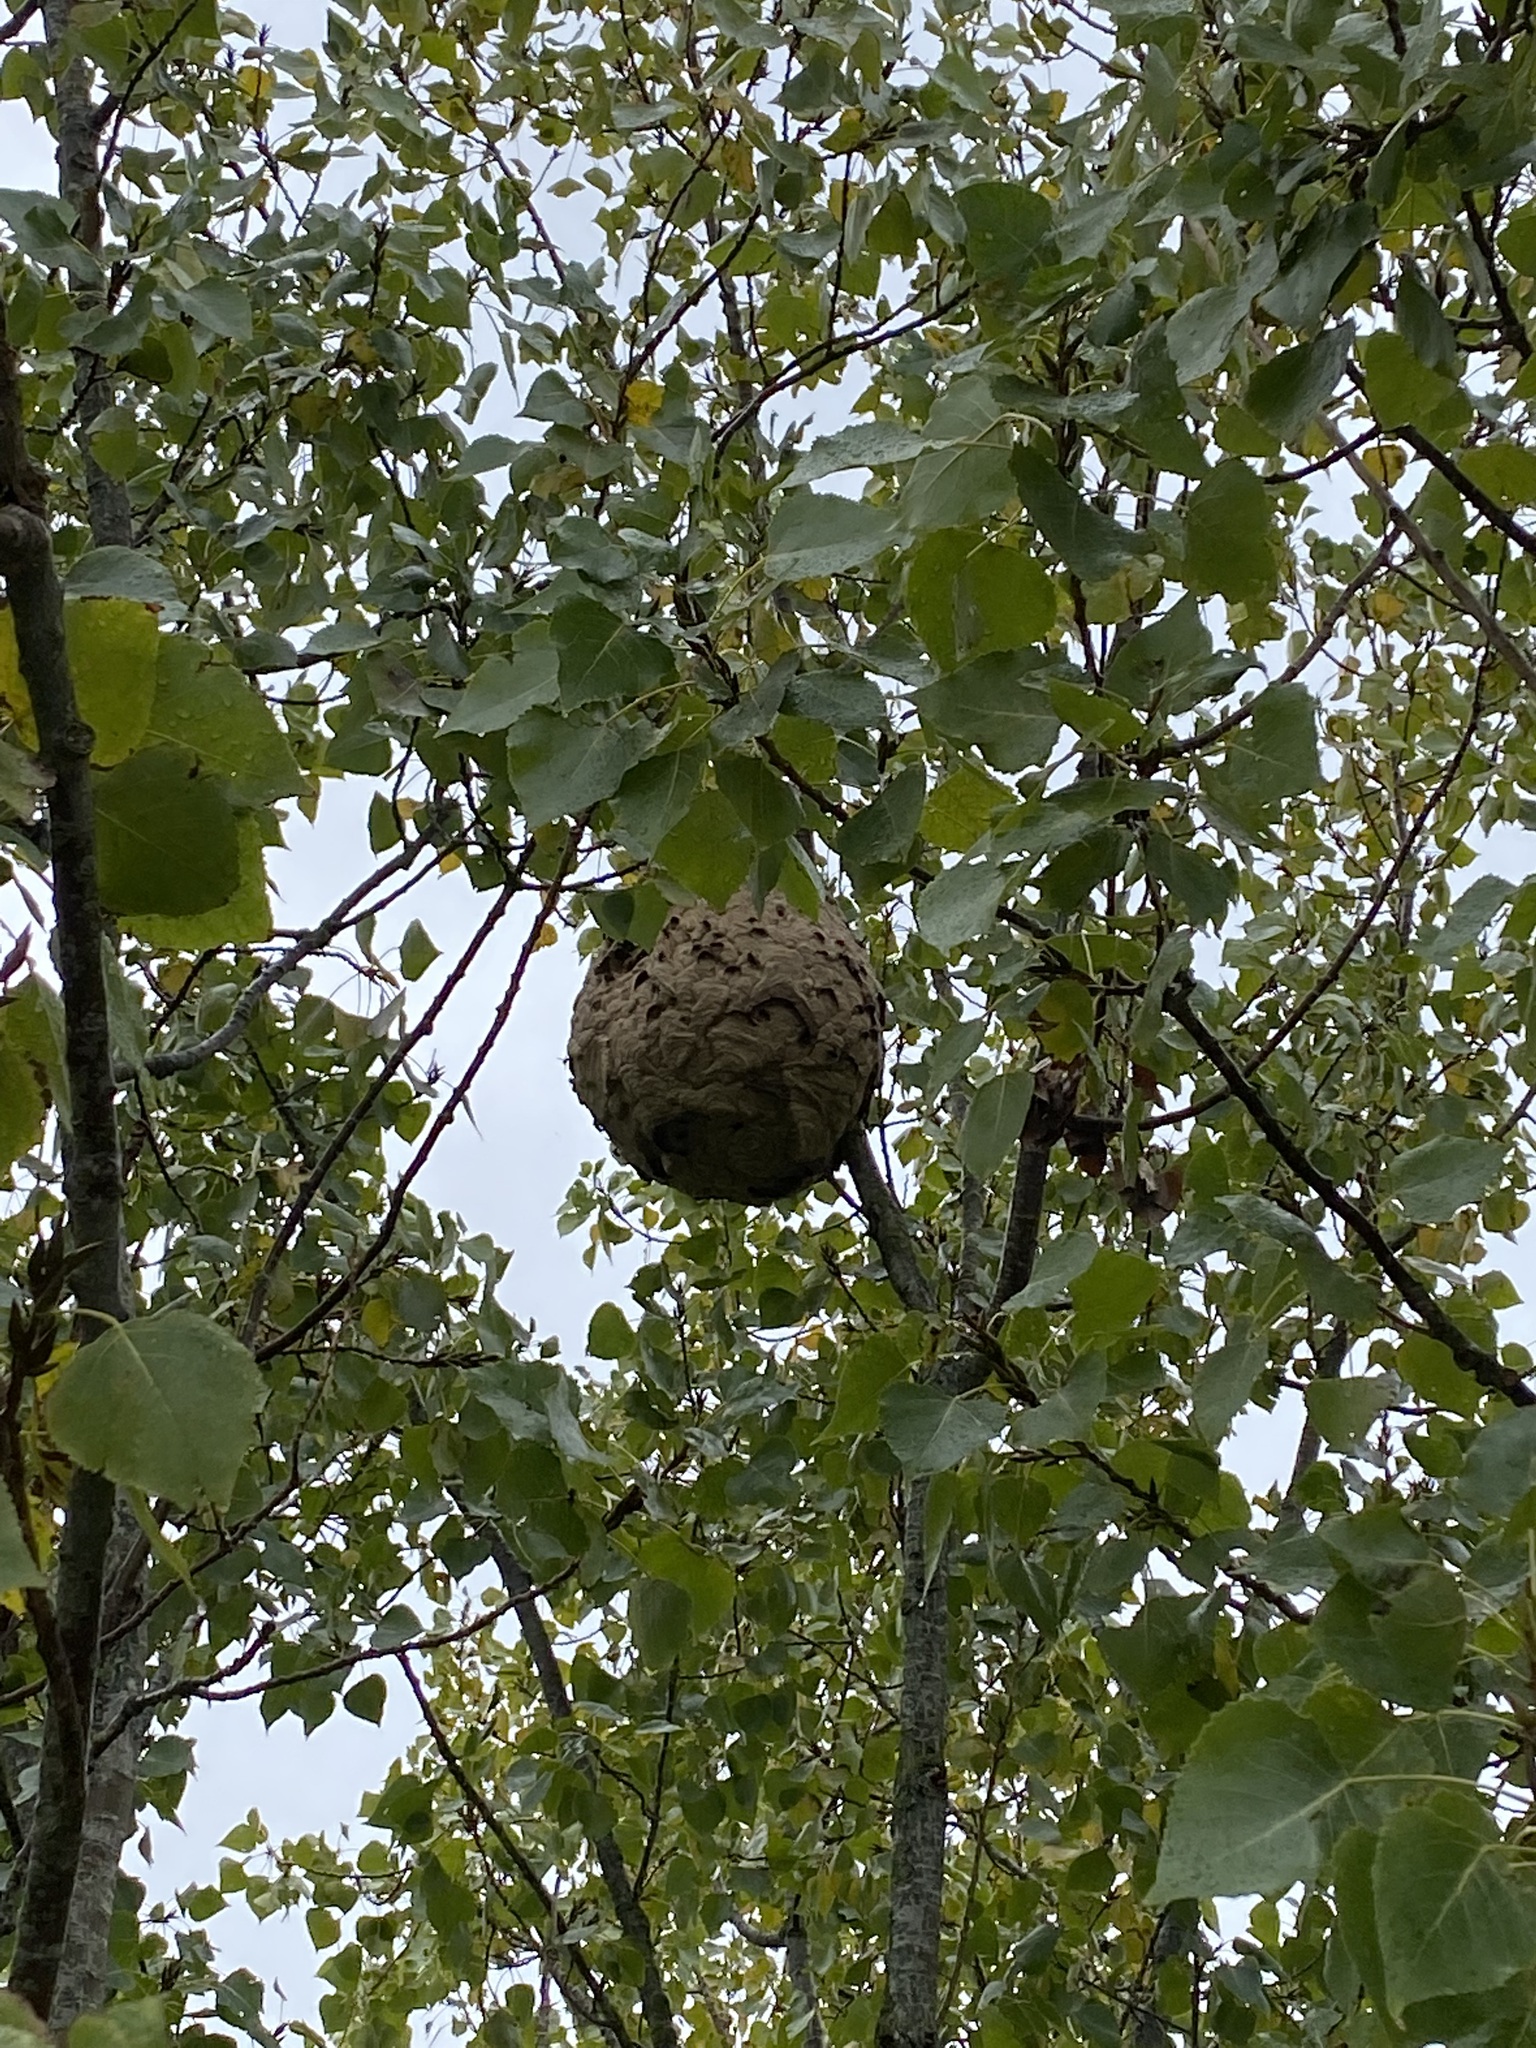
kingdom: Animalia
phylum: Arthropoda
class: Insecta
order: Hymenoptera
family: Vespidae
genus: Vespa
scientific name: Vespa velutina
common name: Asian hornet
